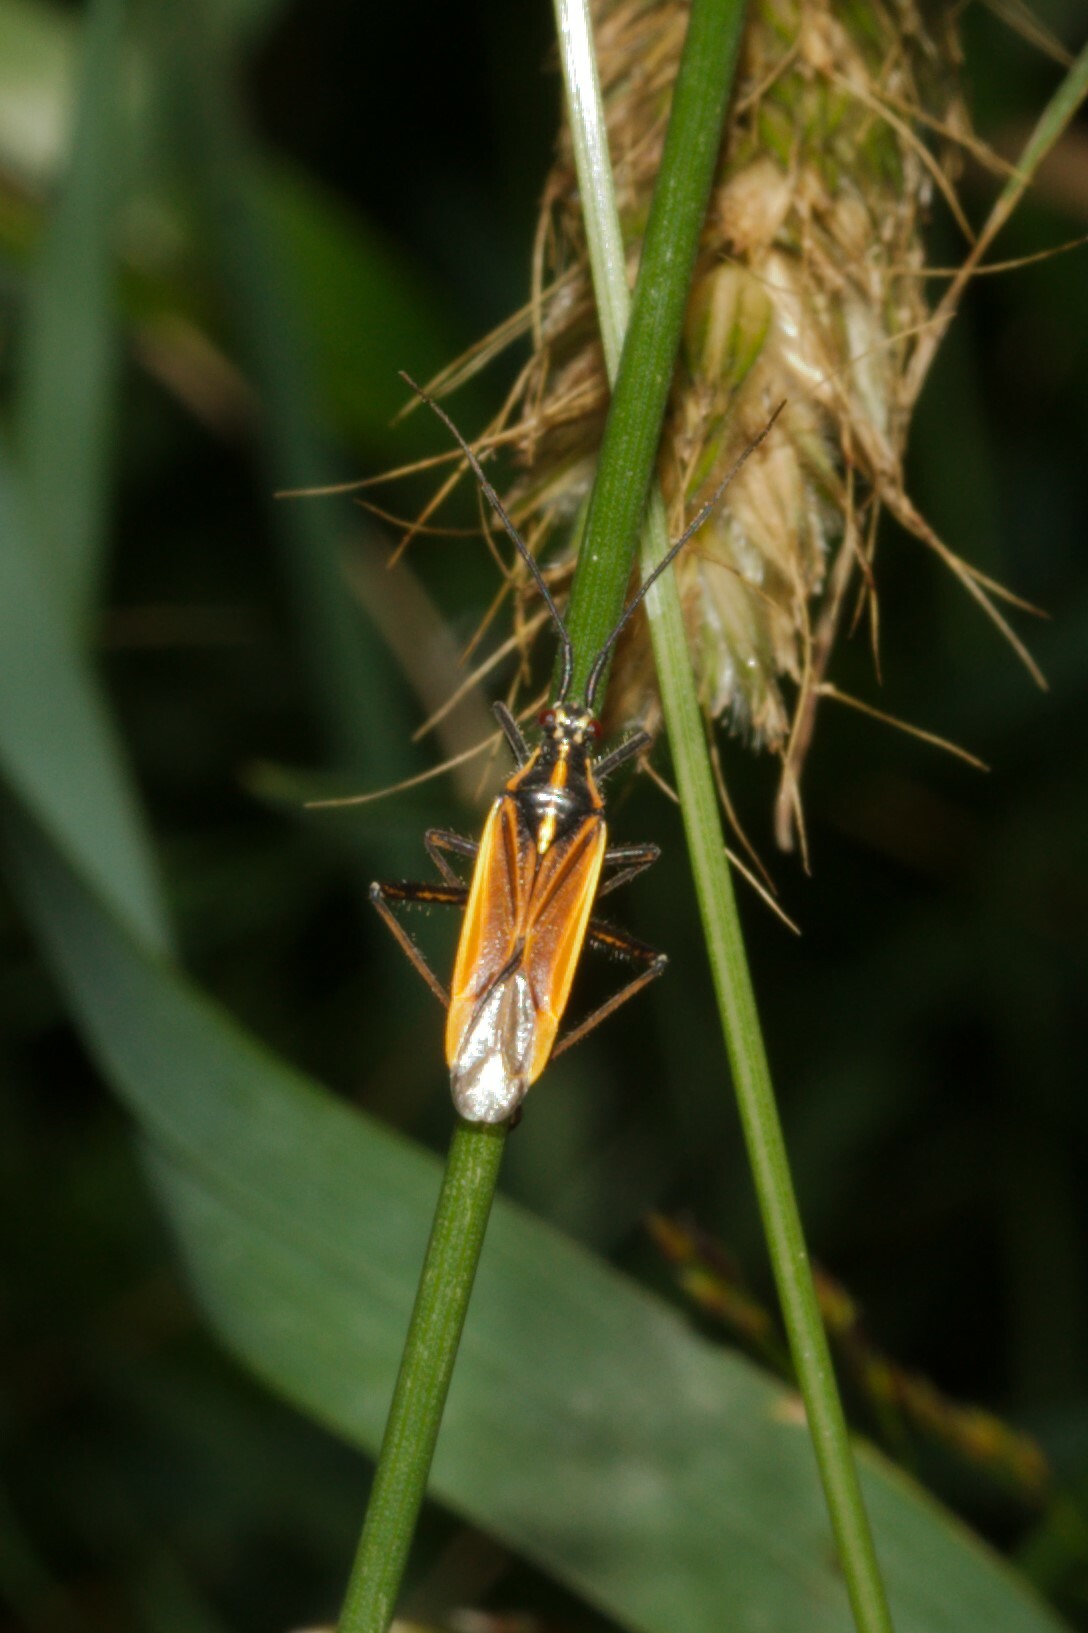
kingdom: Animalia
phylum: Arthropoda
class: Insecta
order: Hemiptera
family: Miridae
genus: Leptopterna
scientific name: Leptopterna dolabrata
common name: Meadow plant bug
